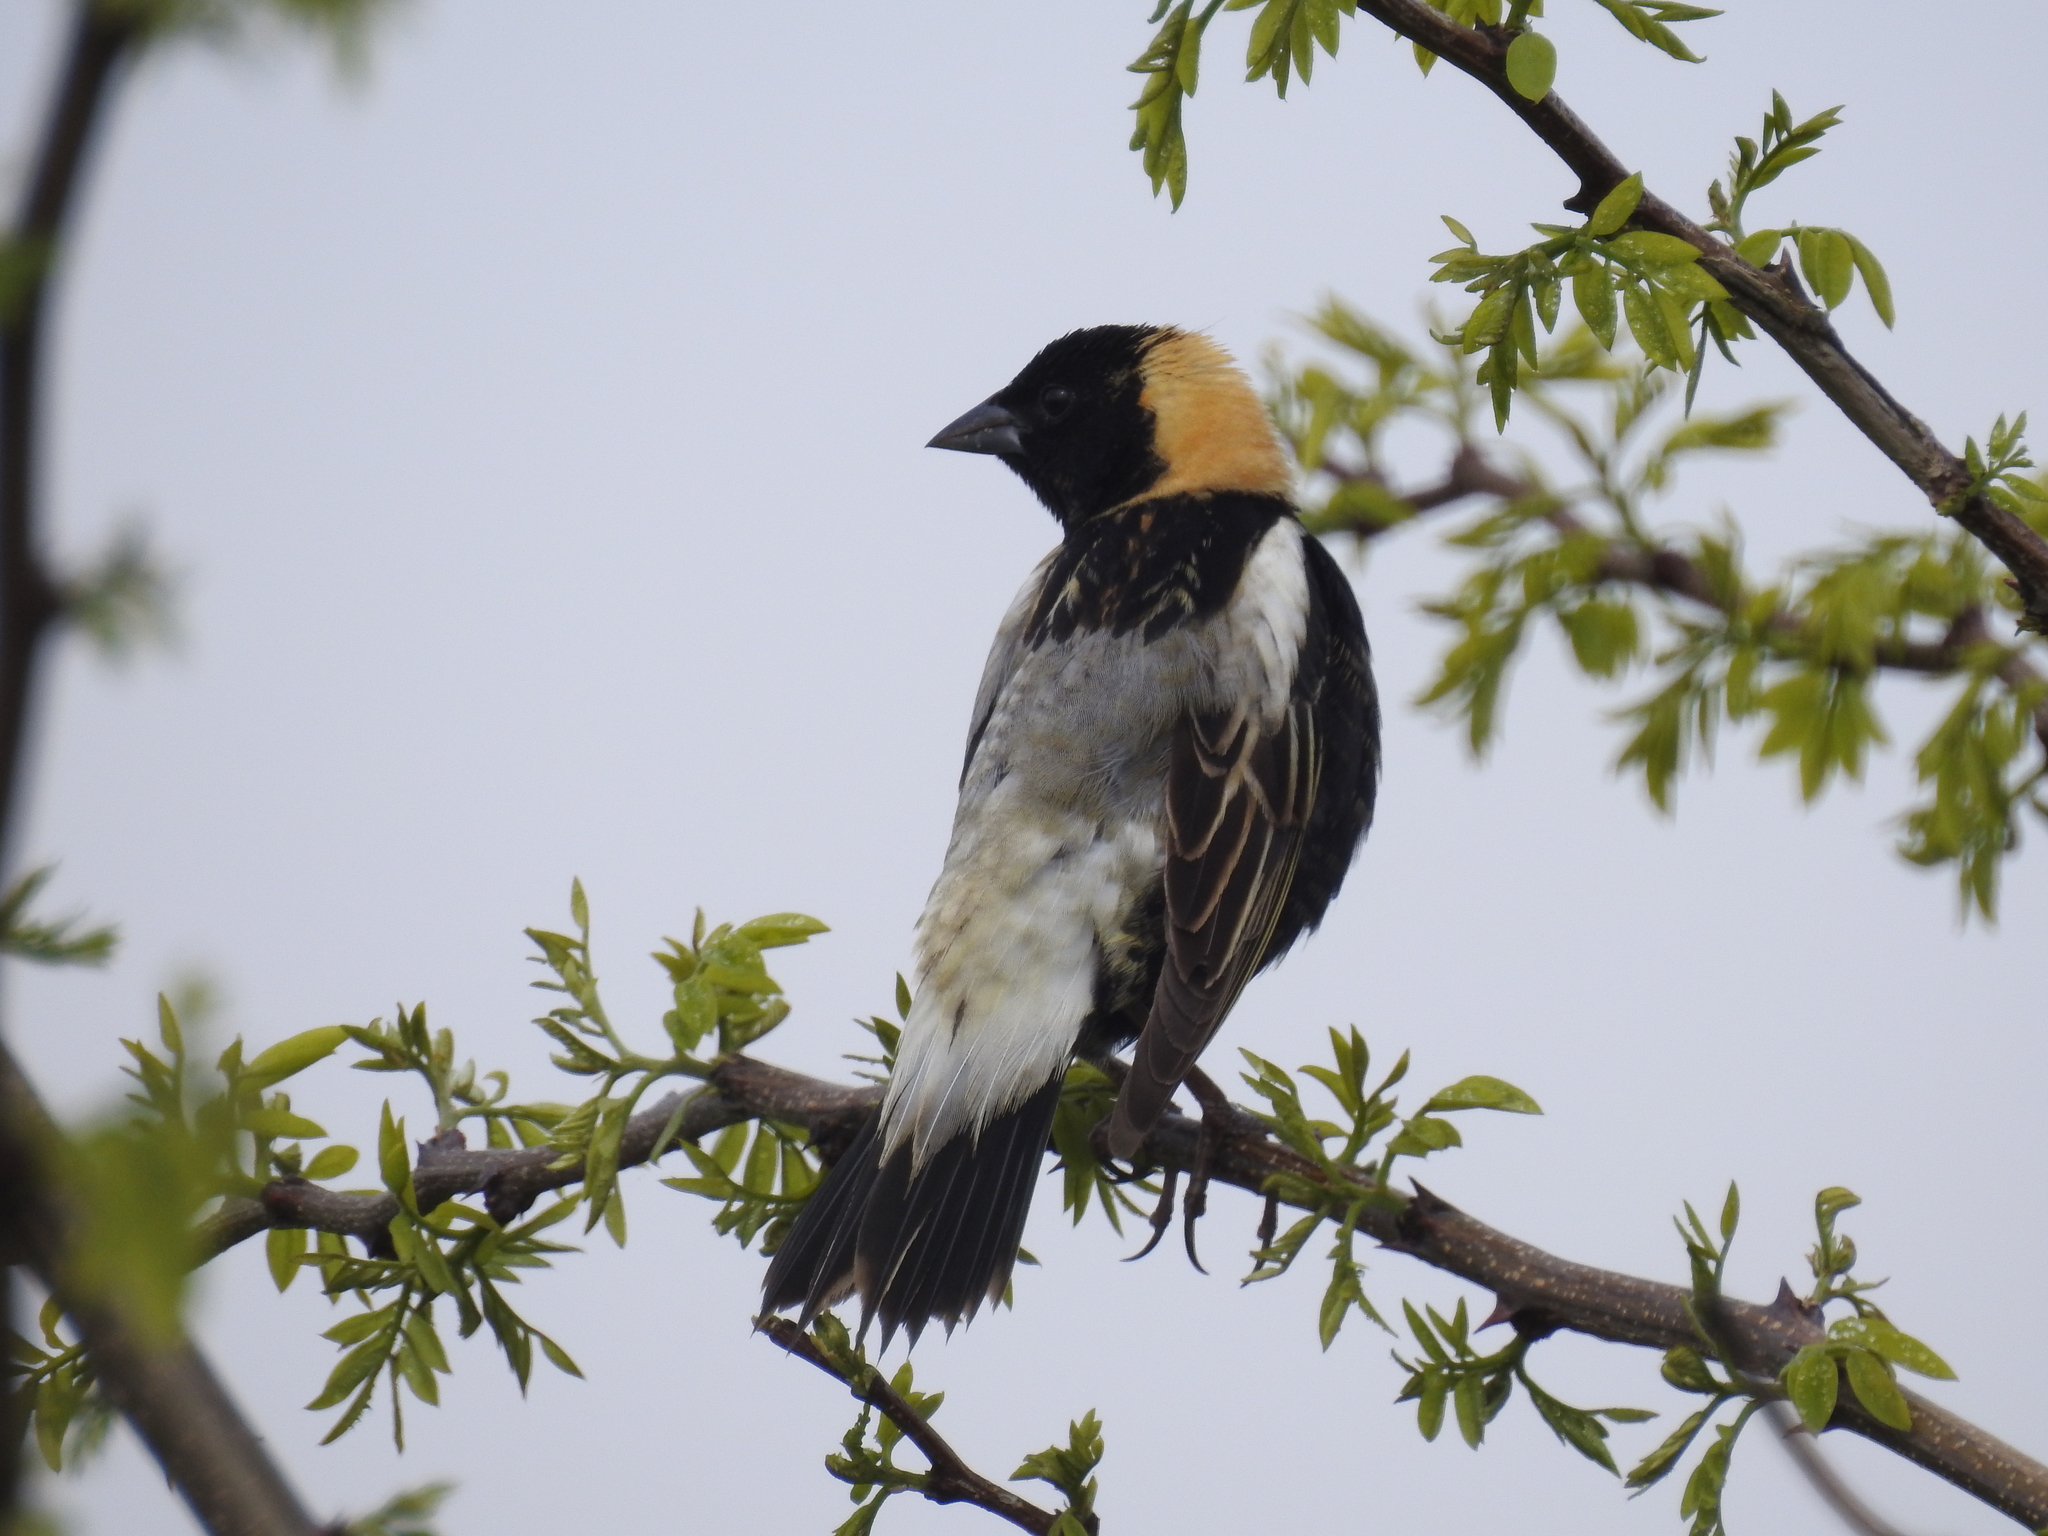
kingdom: Animalia
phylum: Chordata
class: Aves
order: Passeriformes
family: Icteridae
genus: Dolichonyx
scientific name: Dolichonyx oryzivorus
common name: Bobolink
